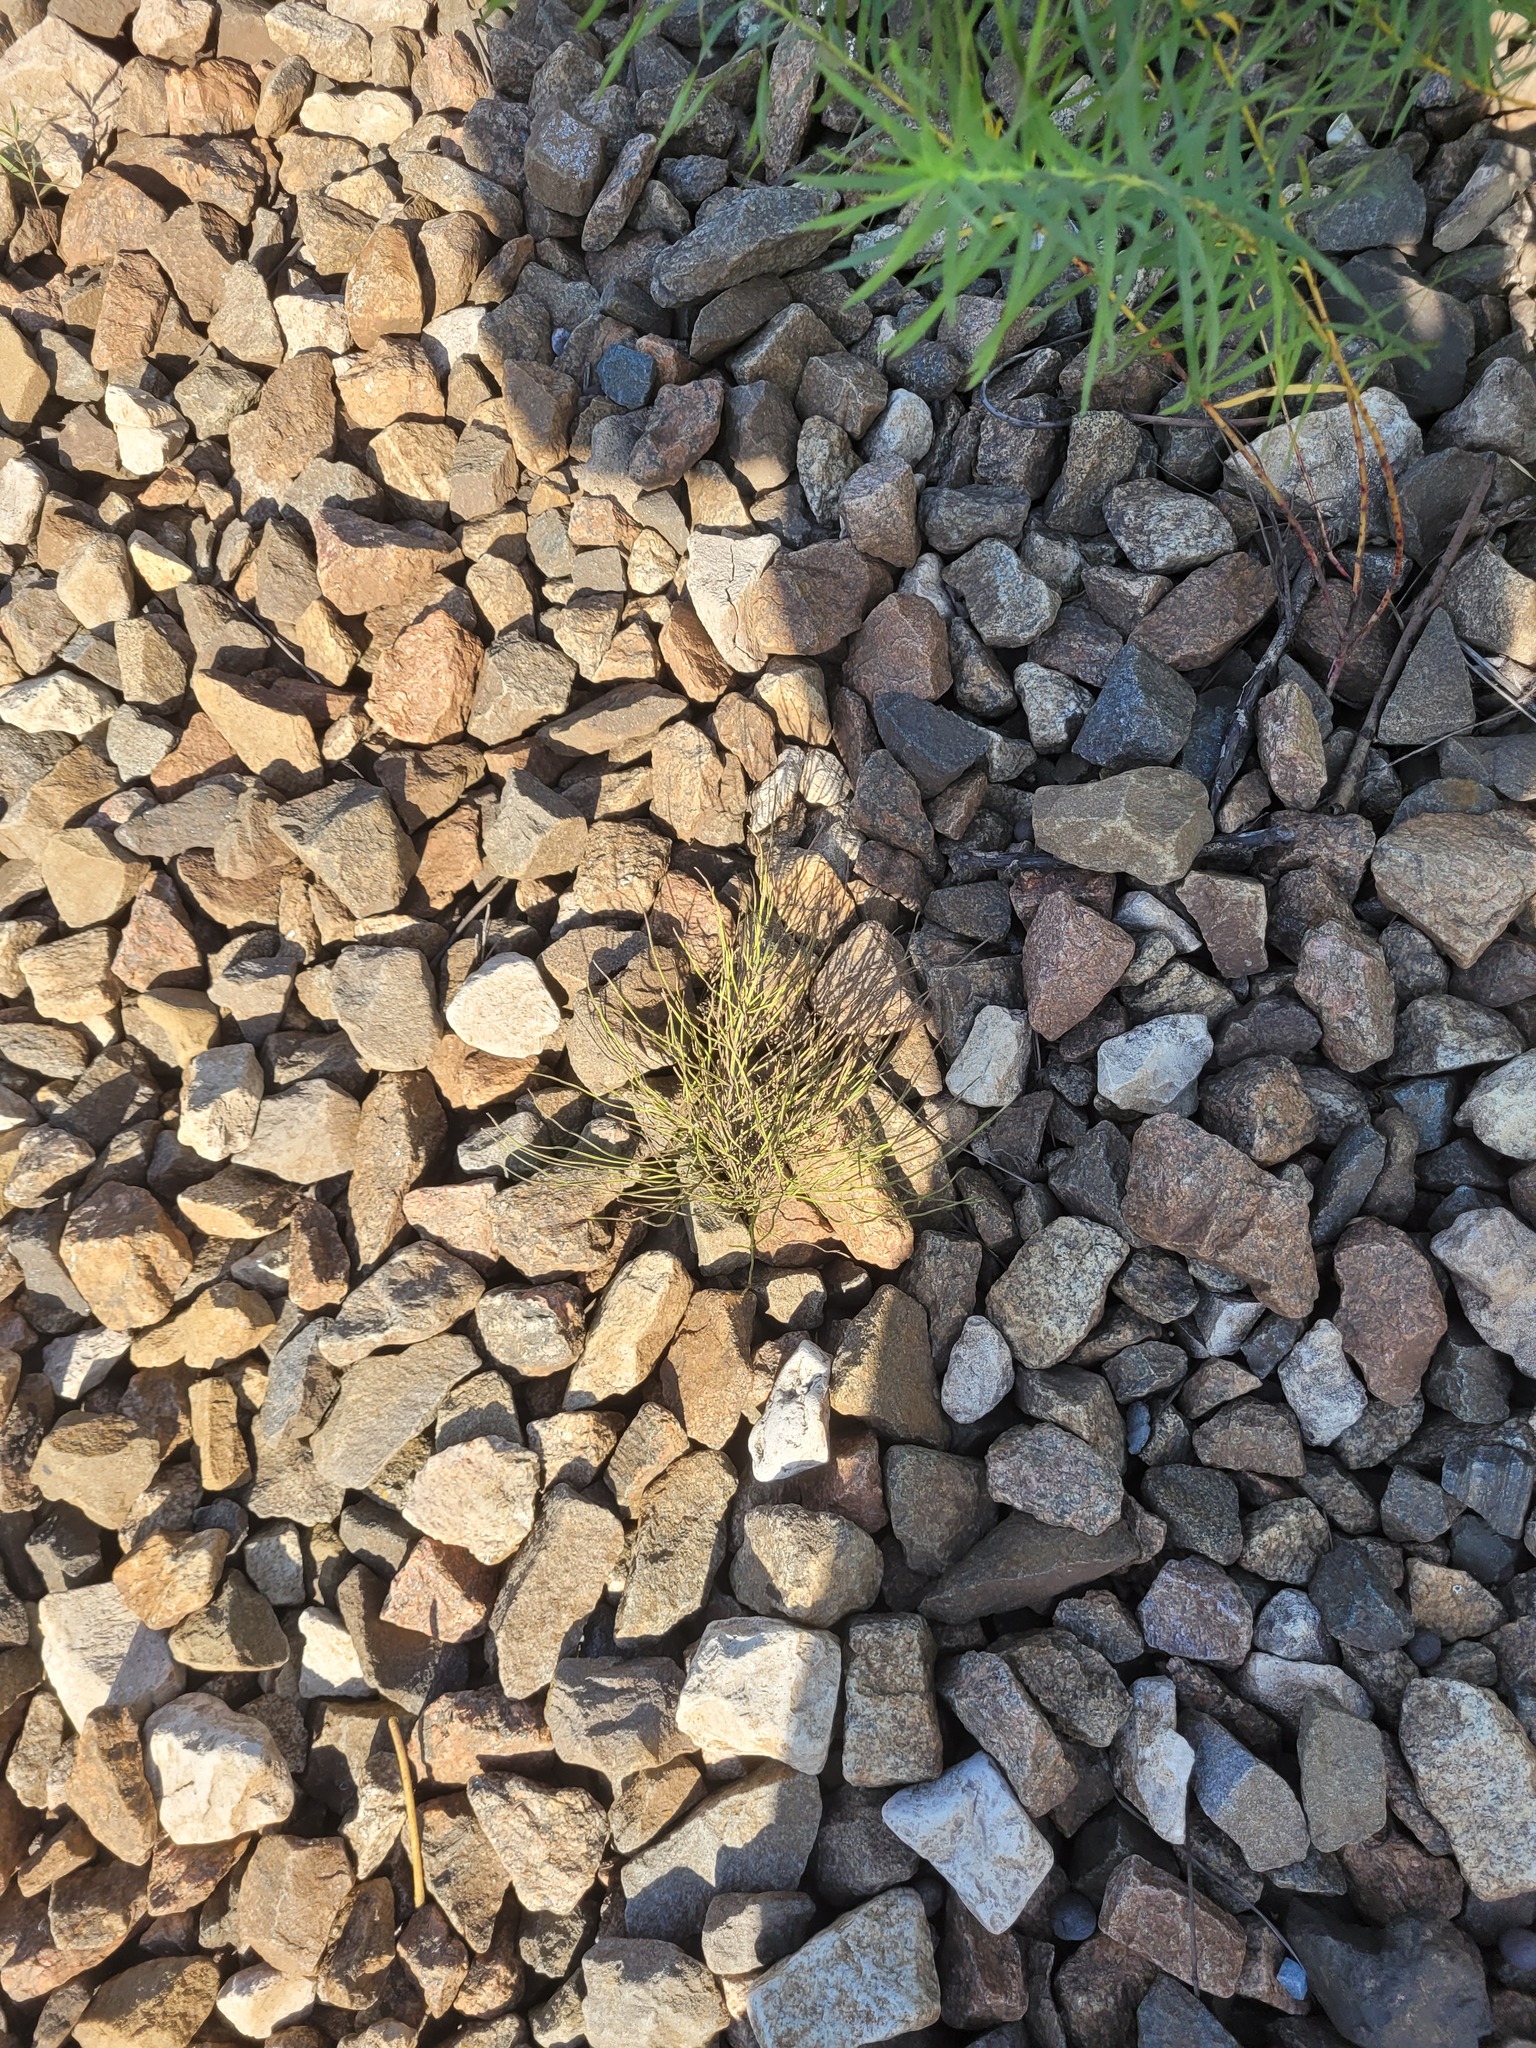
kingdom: Plantae
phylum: Tracheophyta
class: Polypodiopsida
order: Equisetales
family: Equisetaceae
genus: Equisetum
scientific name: Equisetum arvense
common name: Field horsetail
